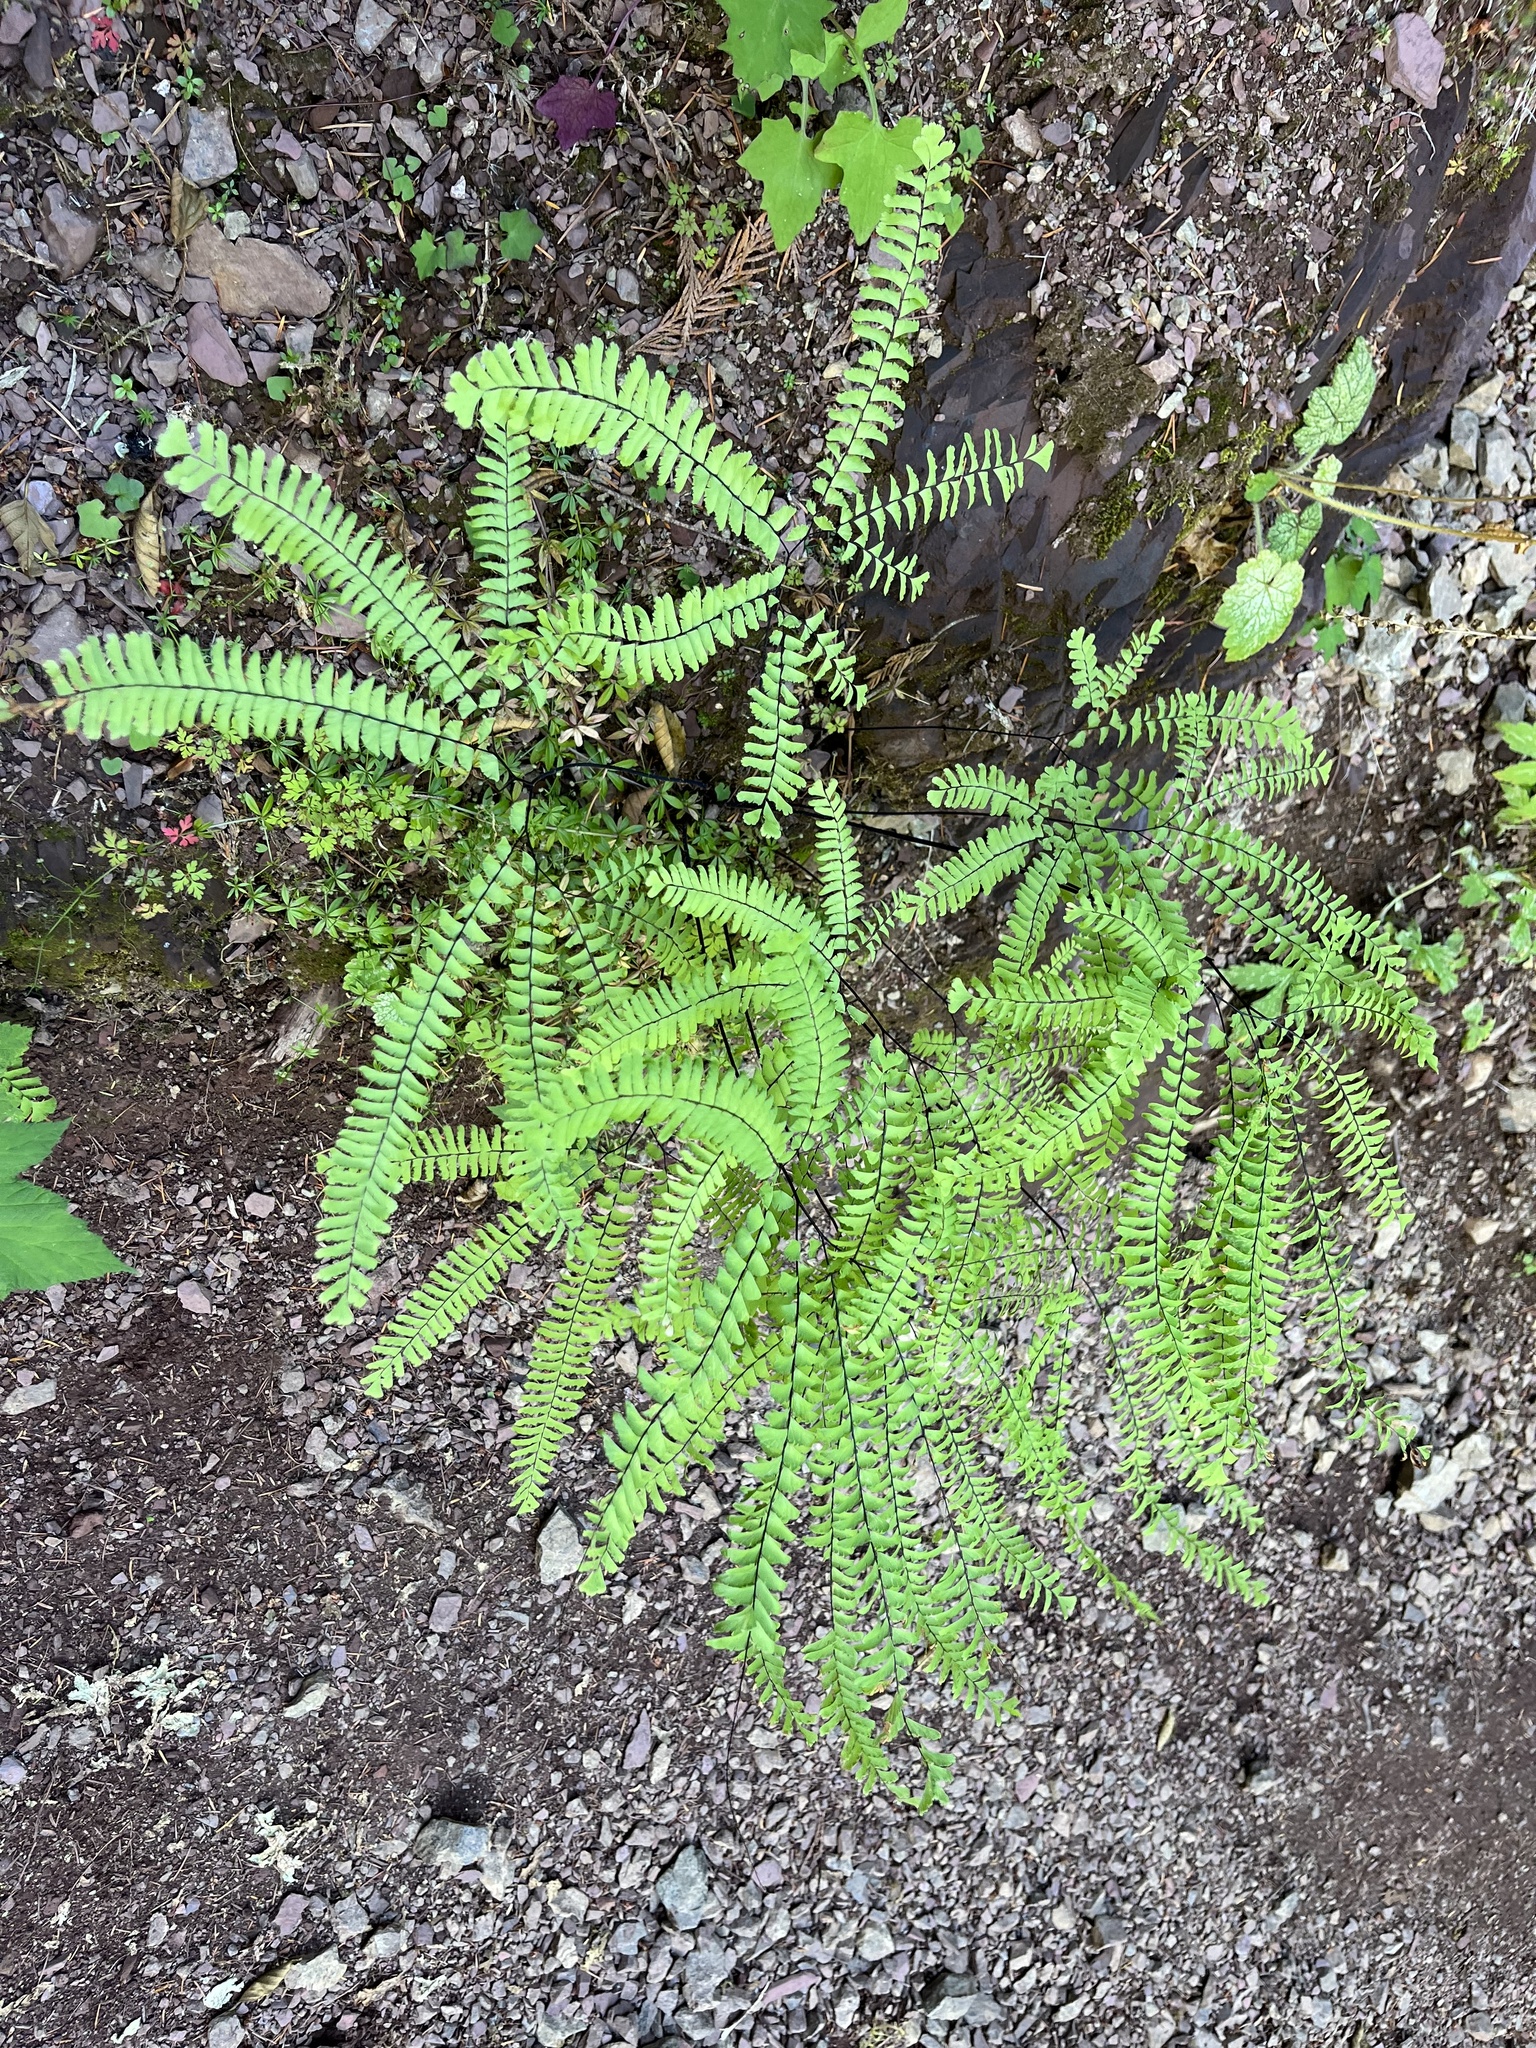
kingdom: Plantae
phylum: Tracheophyta
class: Polypodiopsida
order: Polypodiales
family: Pteridaceae
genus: Adiantum
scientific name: Adiantum aleuticum
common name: Aleutian maidenhair fern
